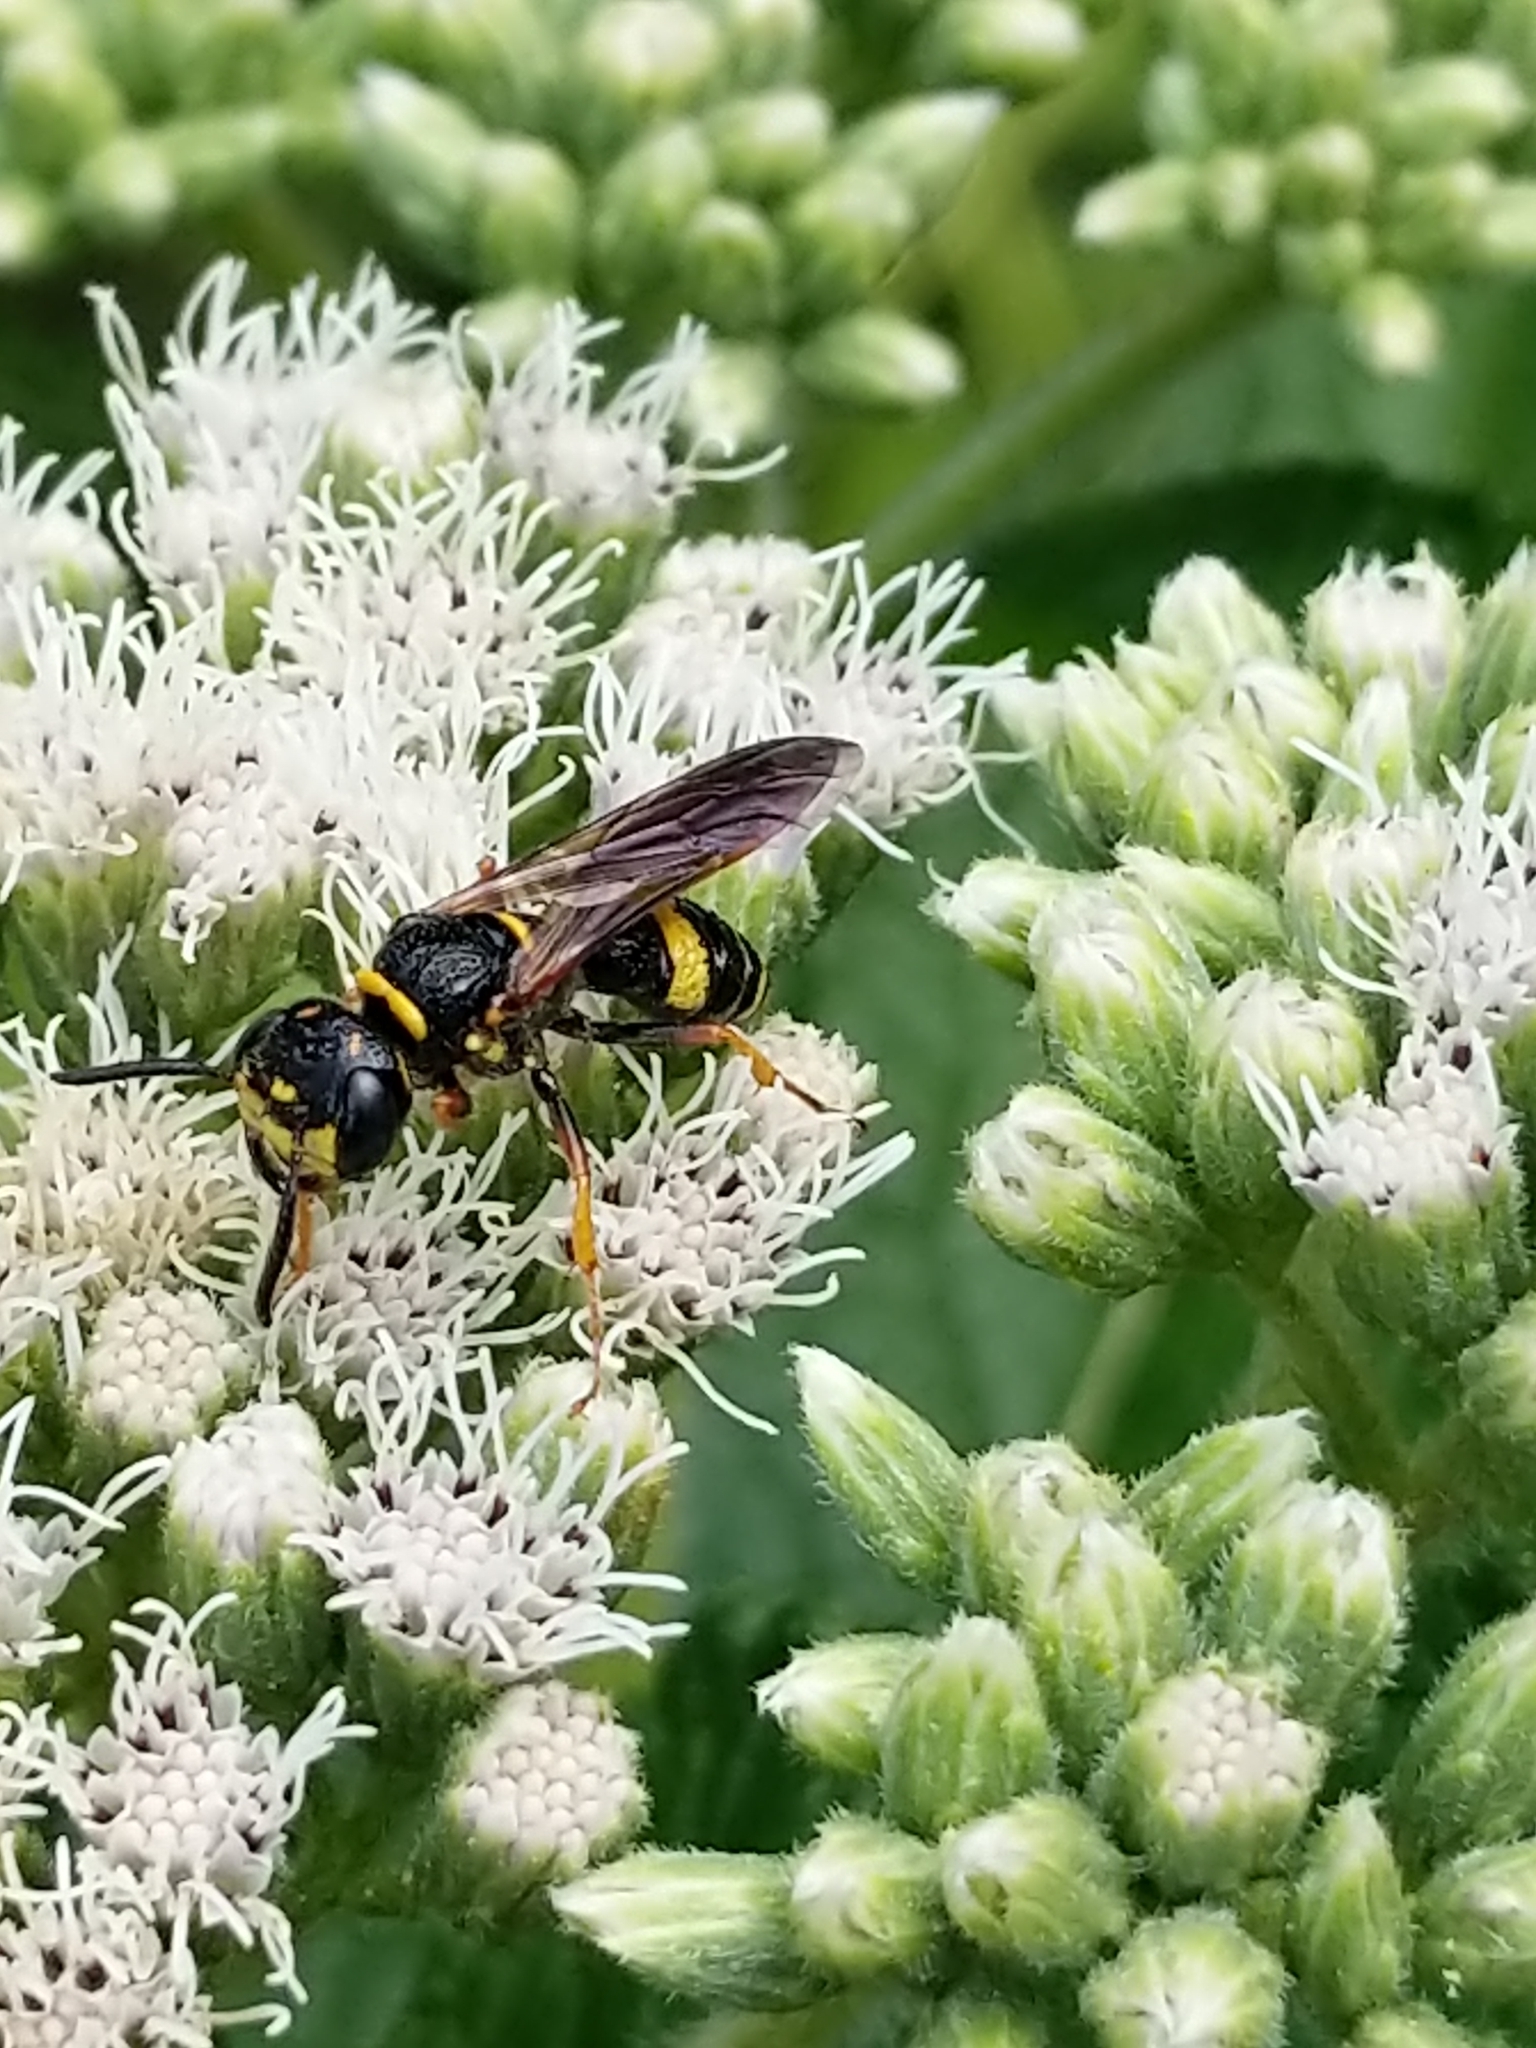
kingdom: Animalia
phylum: Arthropoda
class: Insecta
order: Hymenoptera
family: Crabronidae
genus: Philanthus
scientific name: Philanthus gibbosus
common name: Humped beewolf
